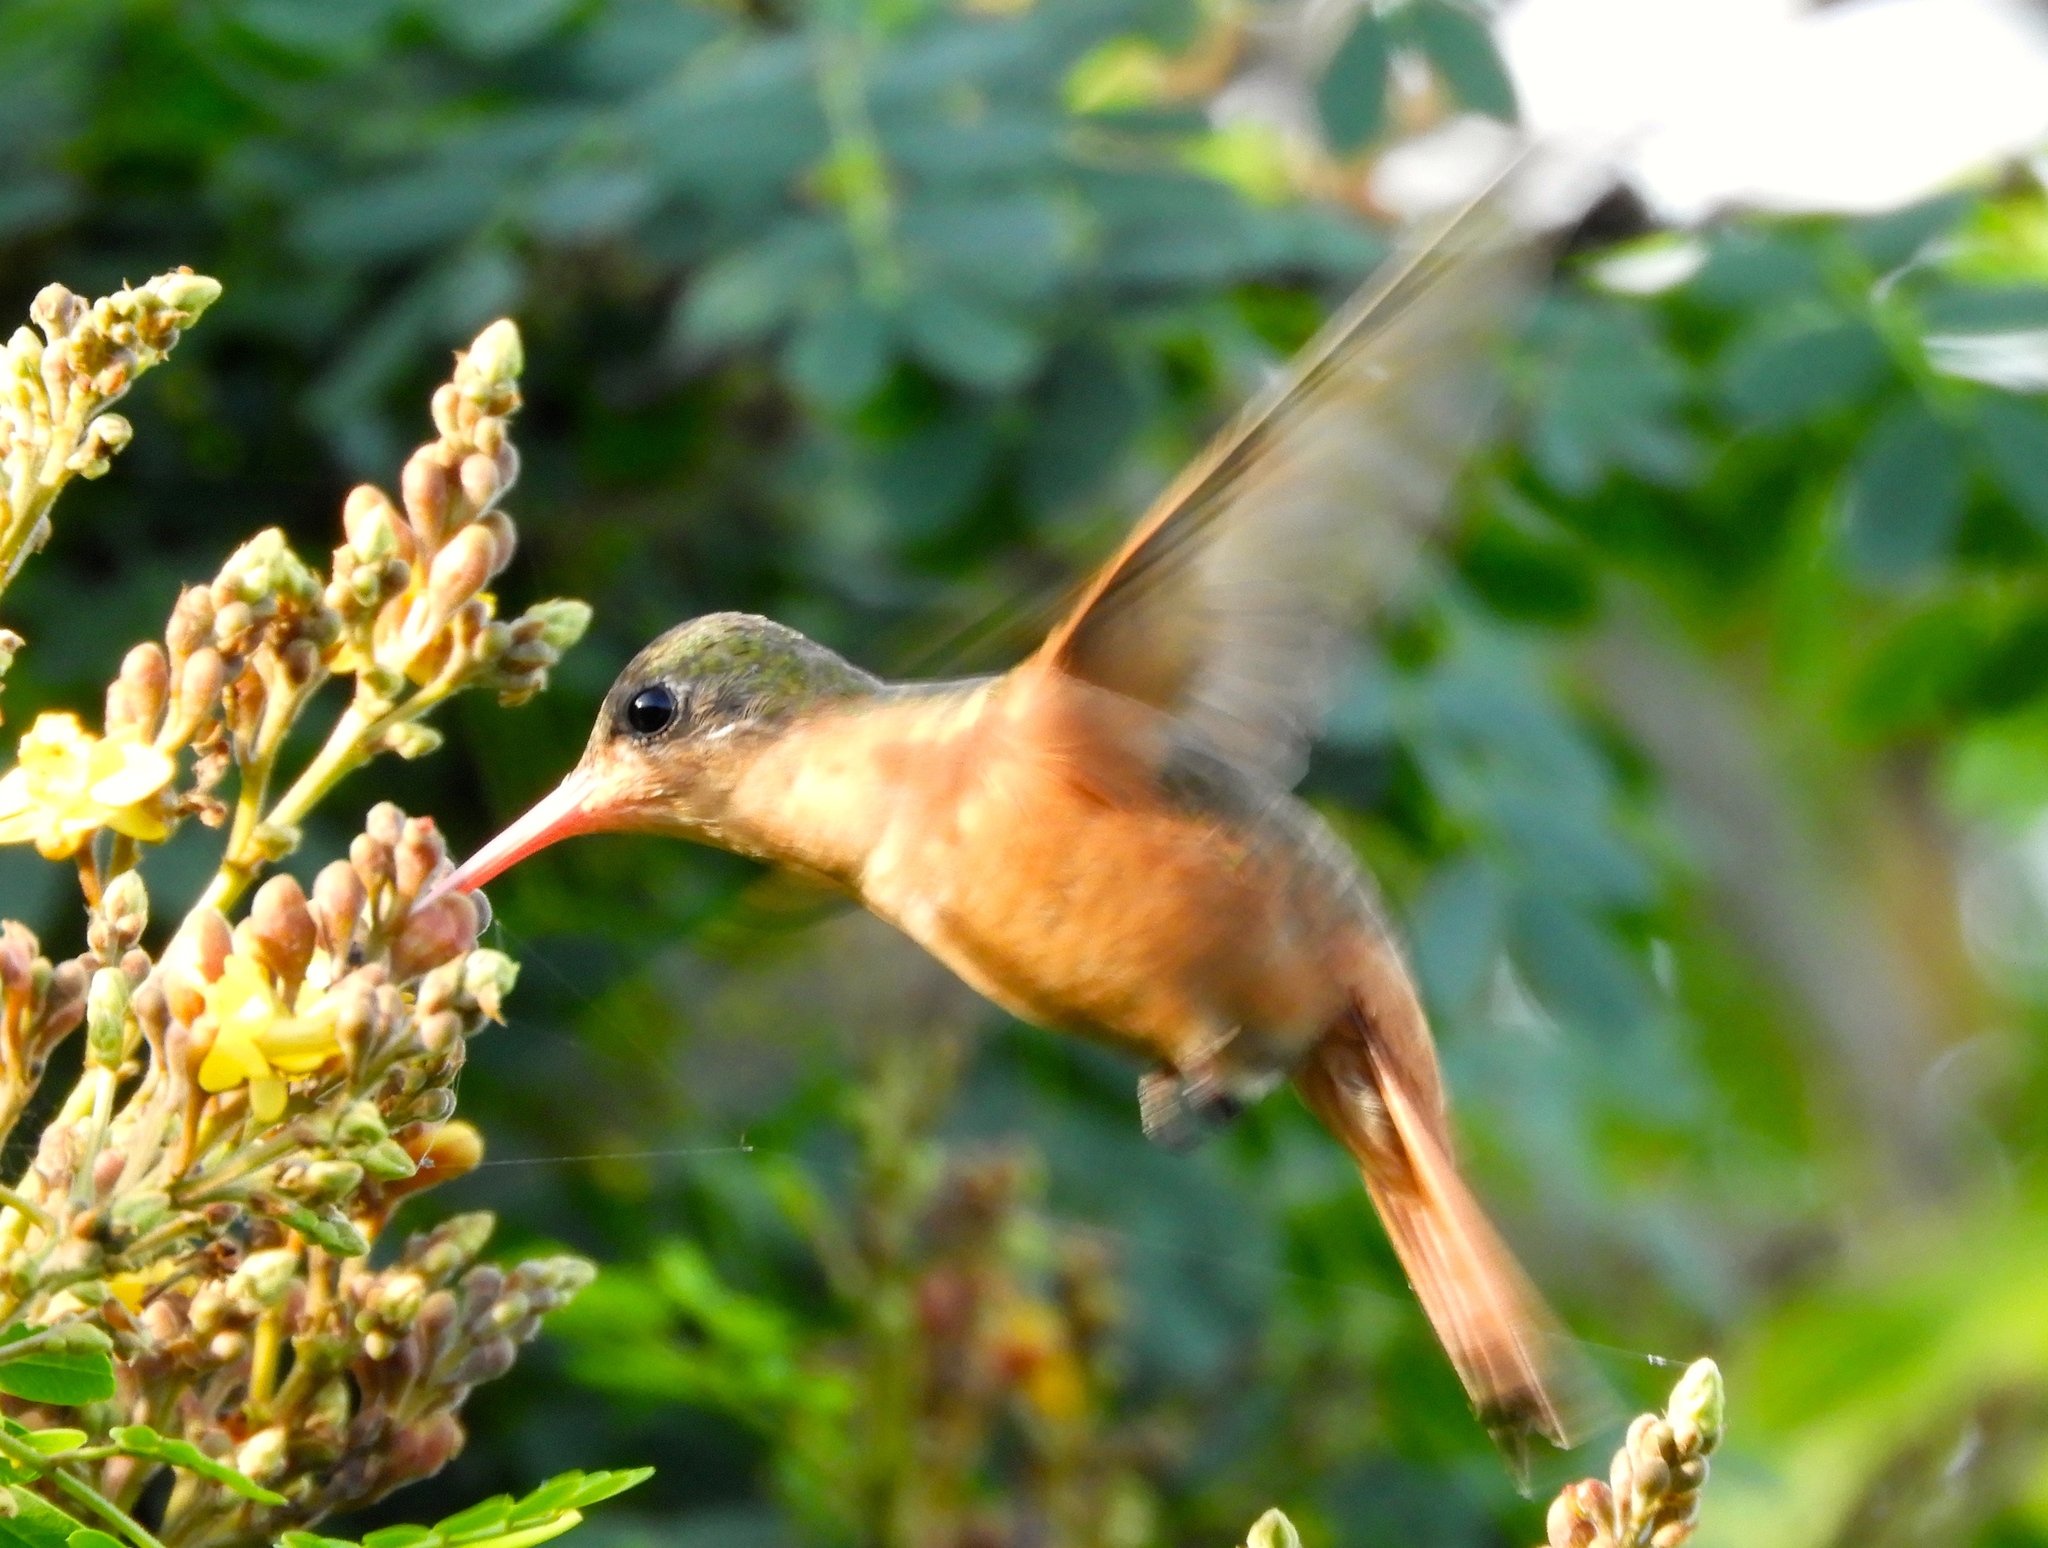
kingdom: Animalia
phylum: Chordata
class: Aves
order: Apodiformes
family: Trochilidae
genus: Amazilia
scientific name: Amazilia rutila
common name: Cinnamon hummingbird
